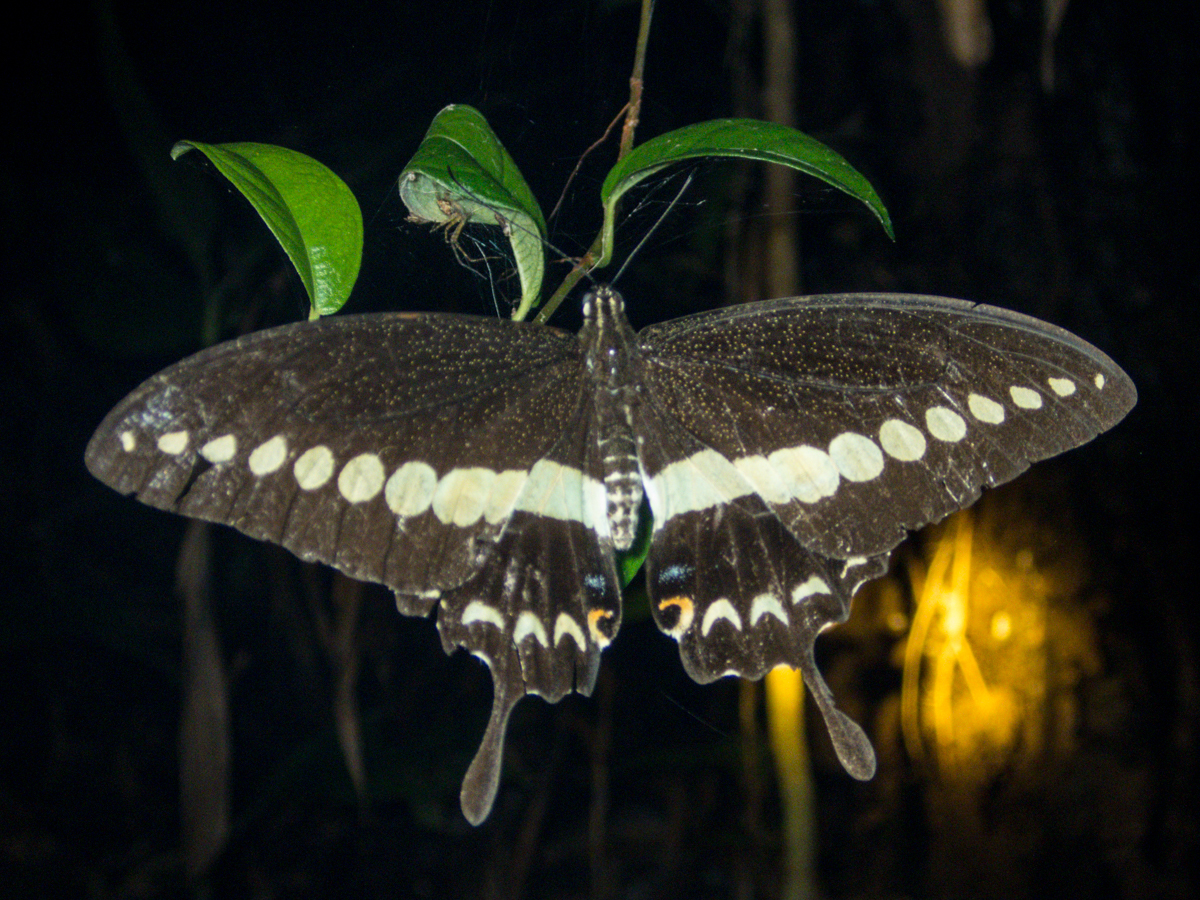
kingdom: Animalia
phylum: Arthropoda
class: Insecta
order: Lepidoptera
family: Papilionidae
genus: Papilio
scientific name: Papilio demolion
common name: Banded swallowtail
